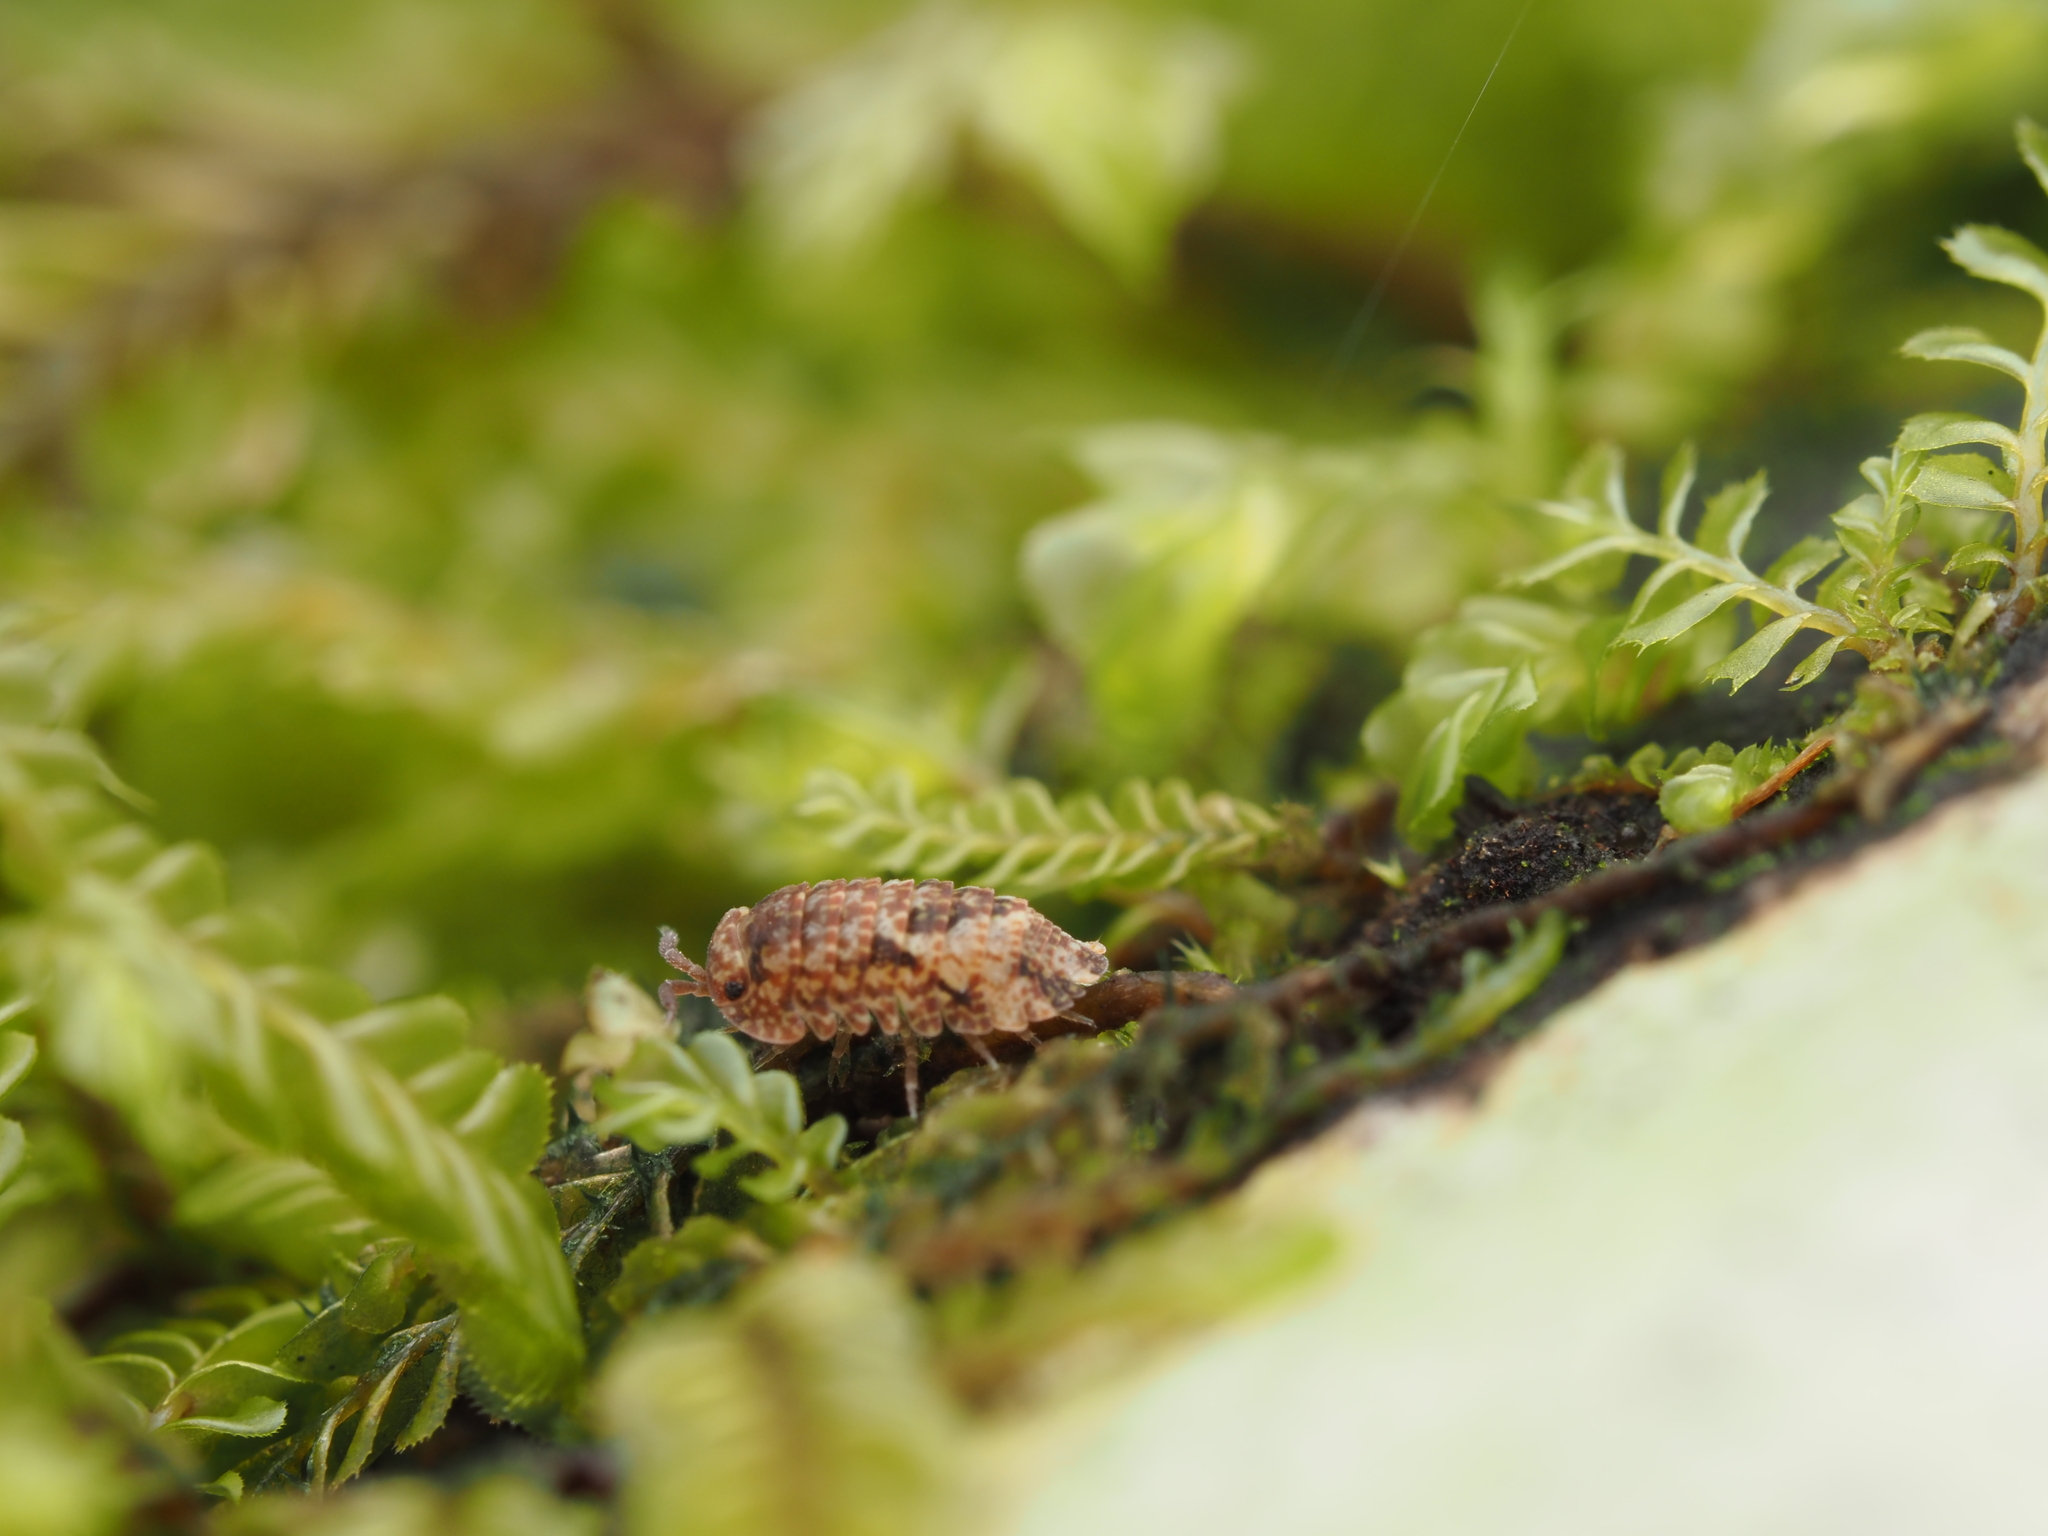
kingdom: Animalia
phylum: Arthropoda
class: Malacostraca
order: Isopoda
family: Armadillidae
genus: Cubaris
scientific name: Cubaris tarangensis
